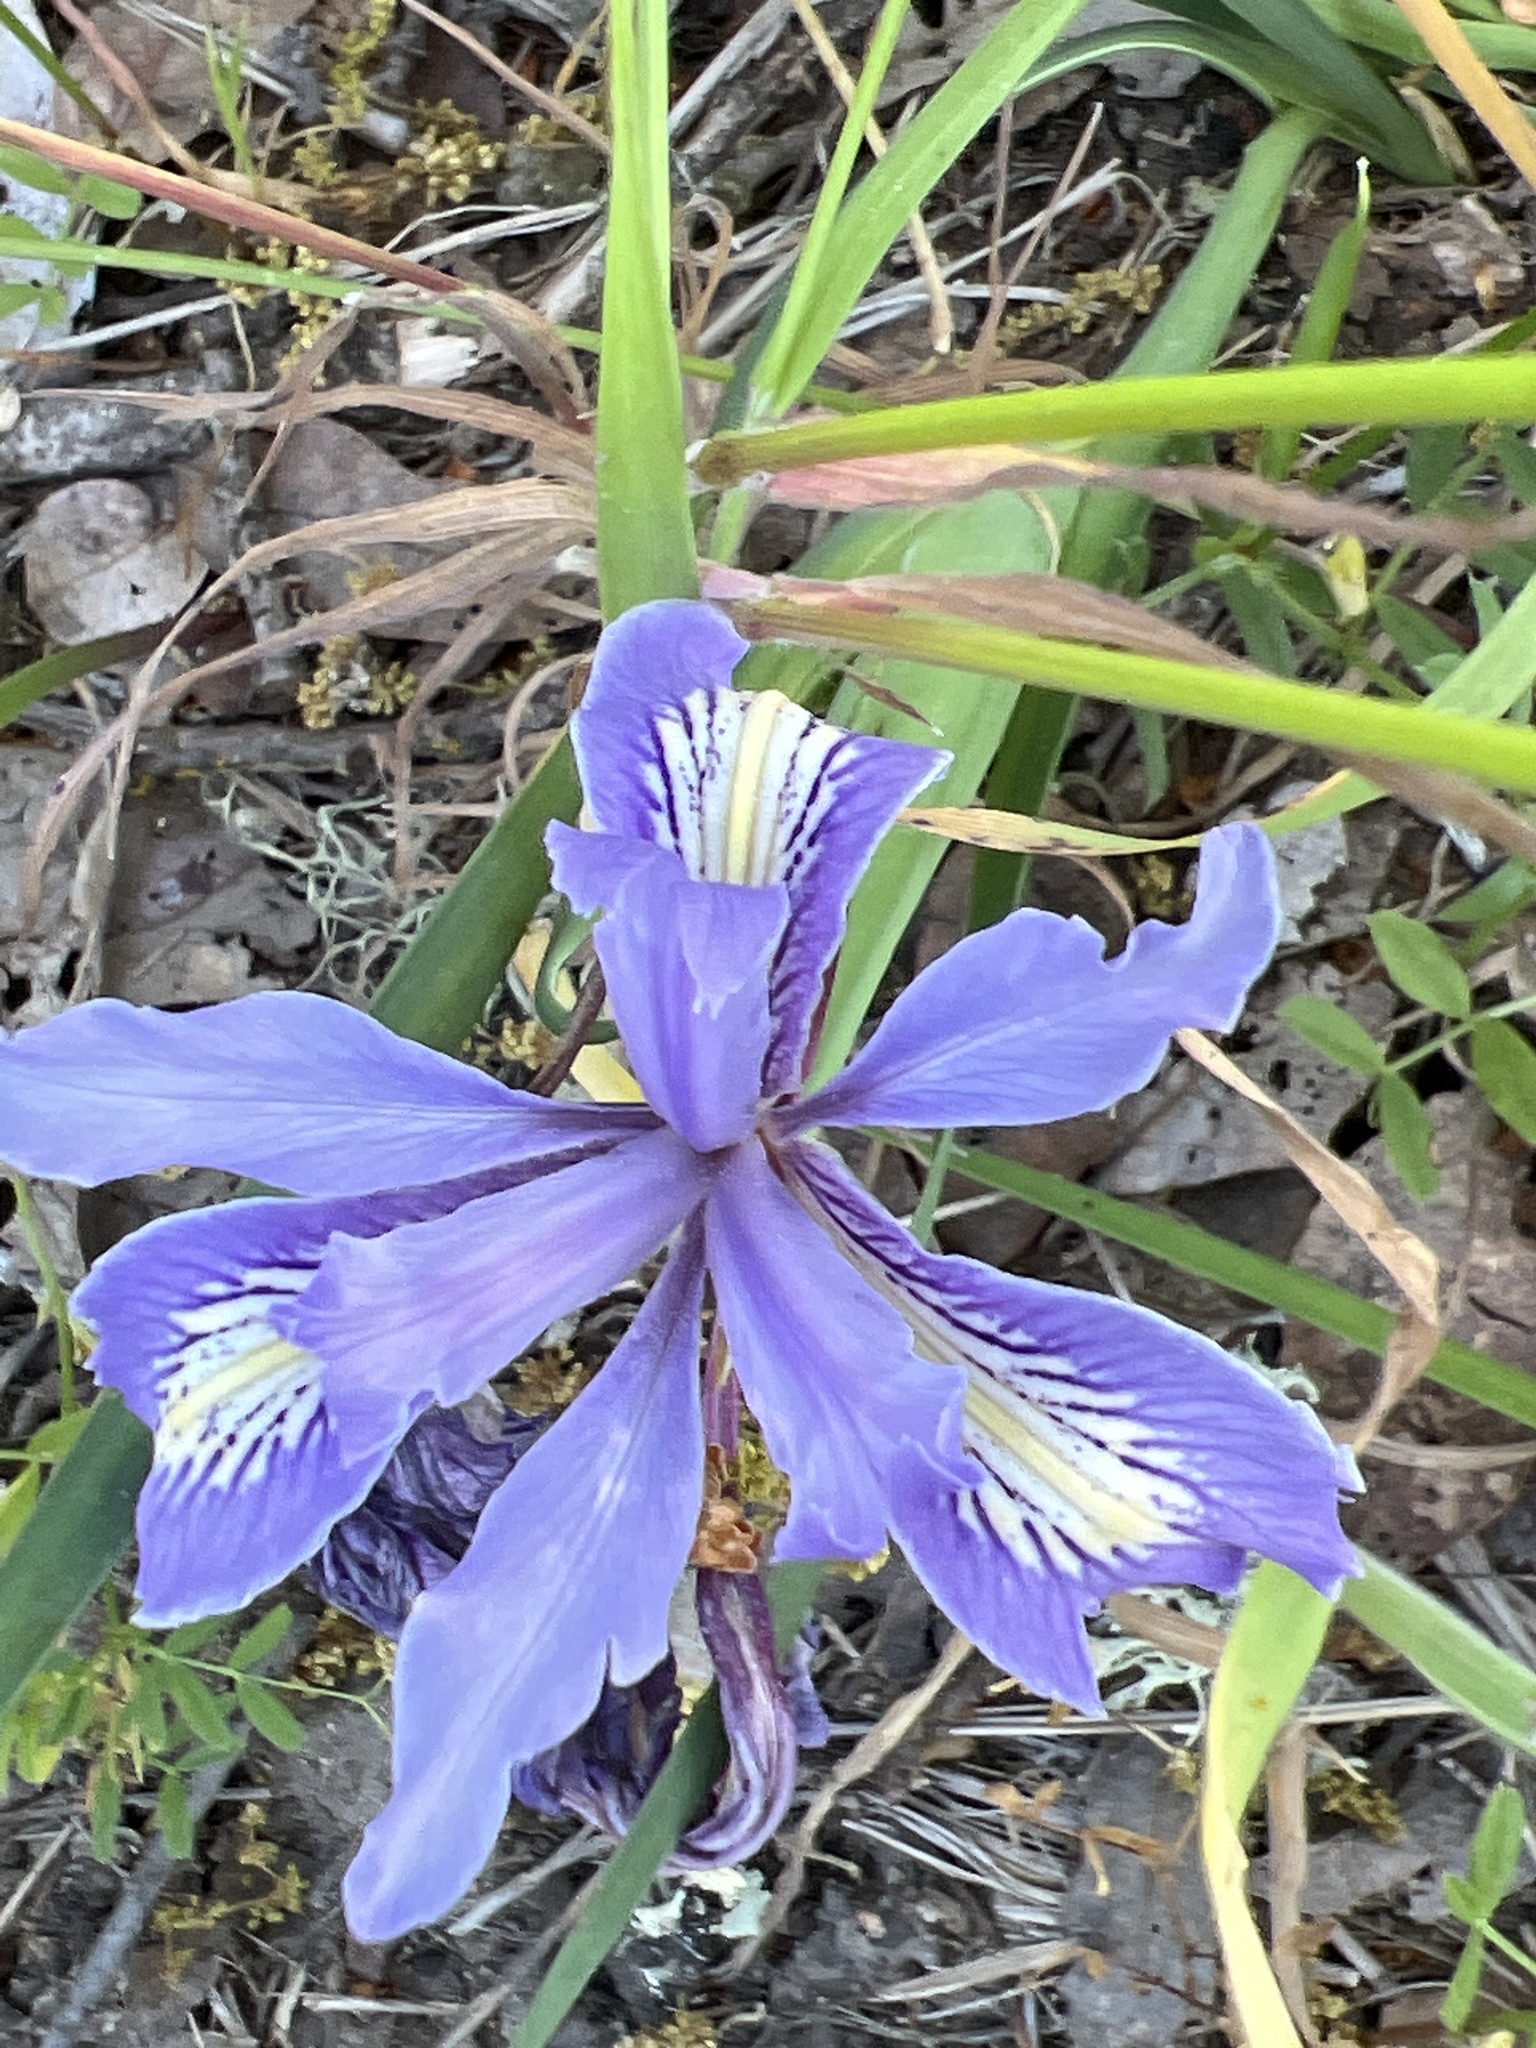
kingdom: Plantae
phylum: Tracheophyta
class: Liliopsida
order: Asparagales
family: Iridaceae
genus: Iris
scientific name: Iris macrosiphon
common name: Ground iris
